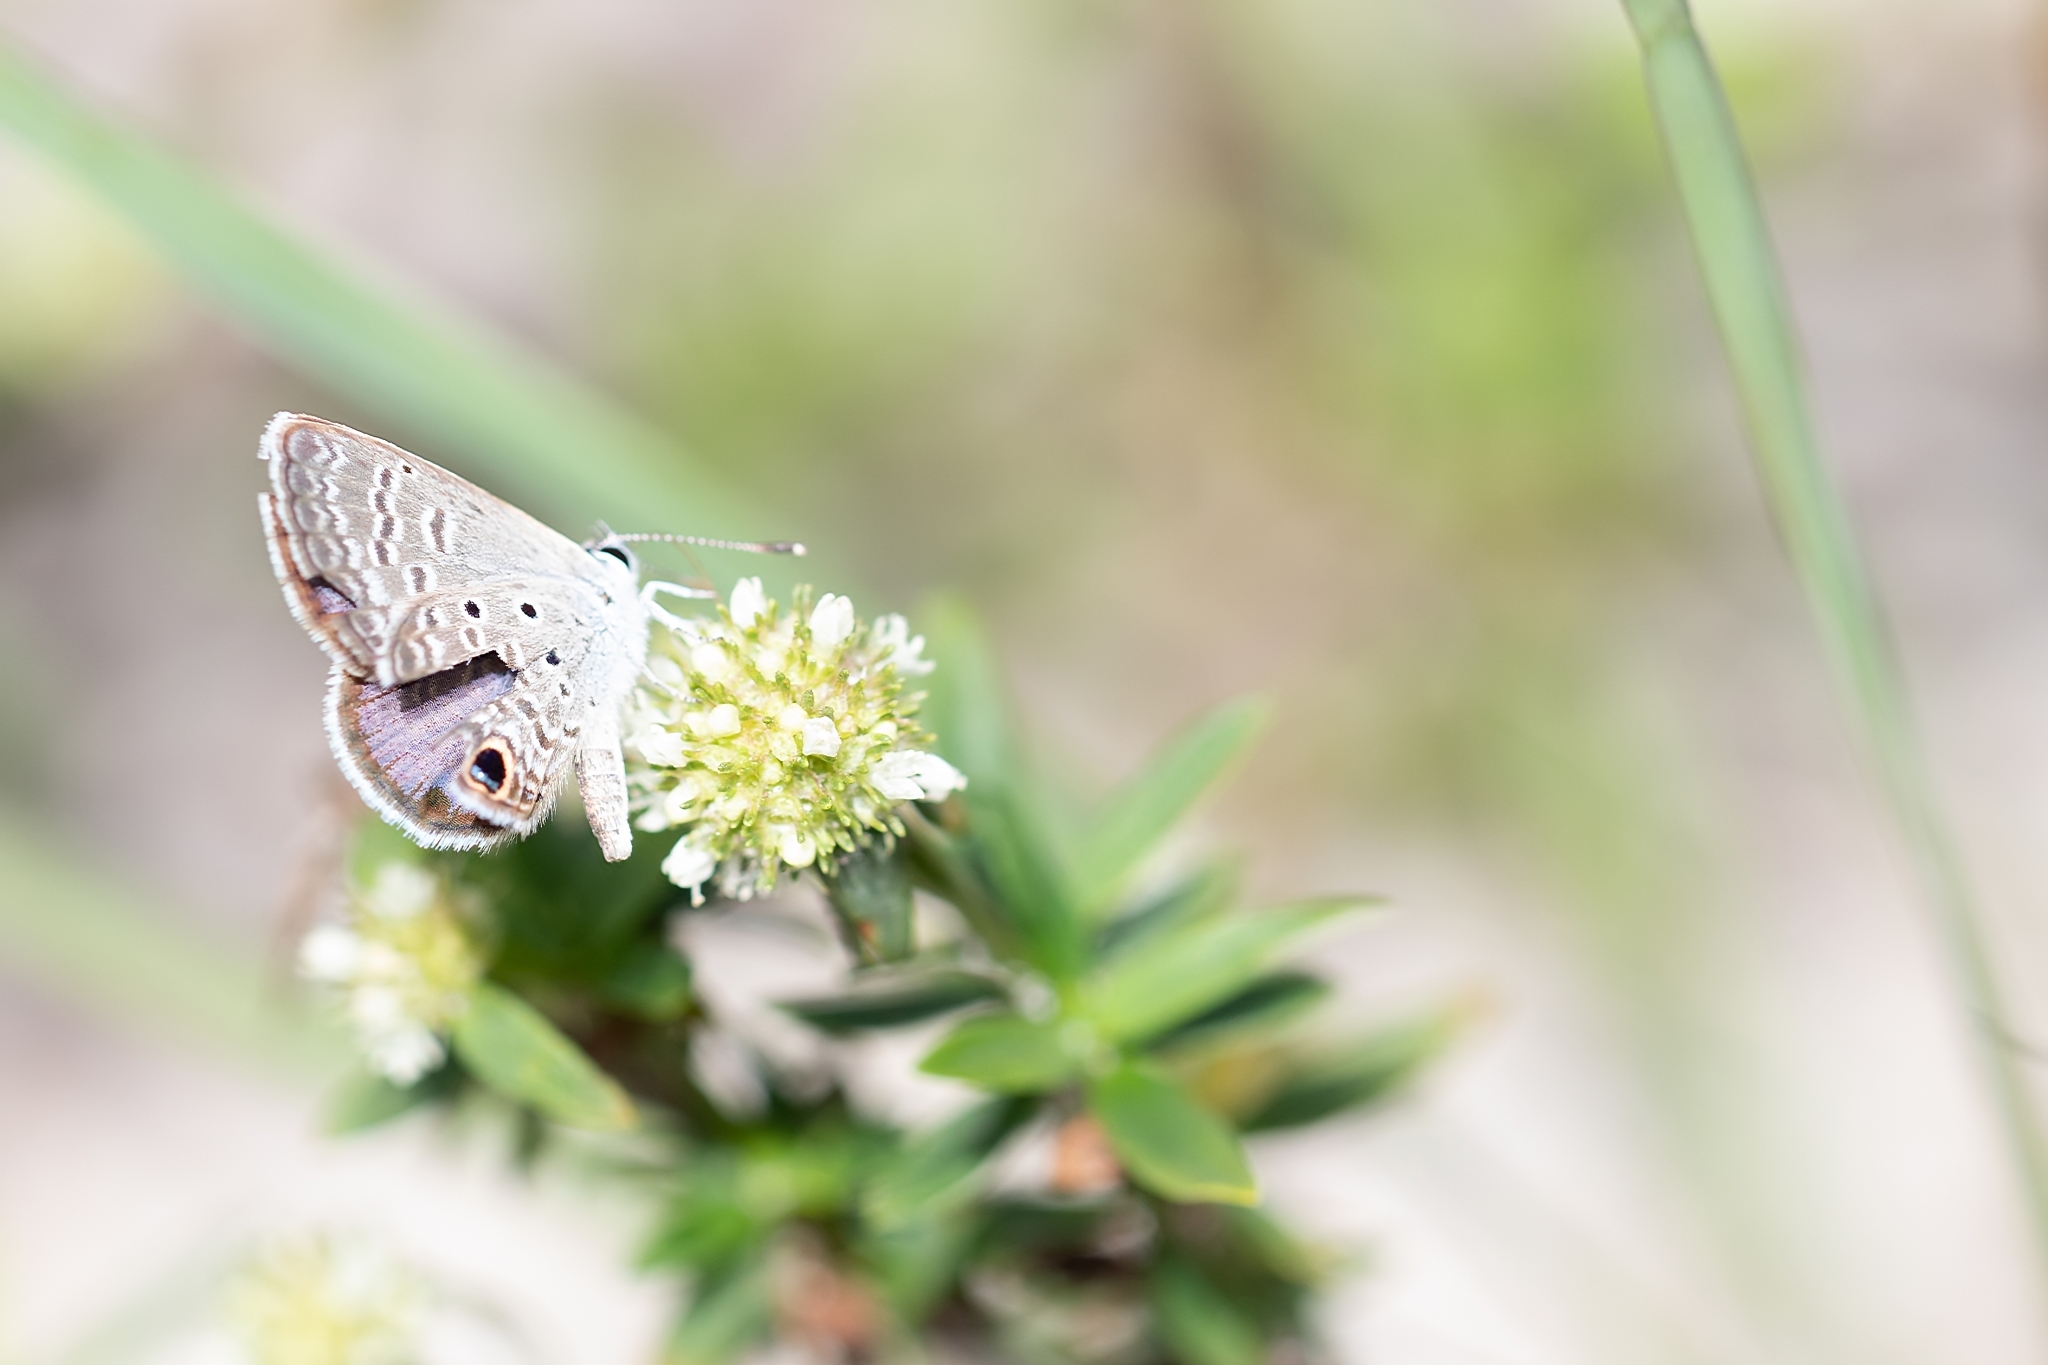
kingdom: Animalia
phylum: Arthropoda
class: Insecta
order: Lepidoptera
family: Lycaenidae
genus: Hemiargus
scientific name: Hemiargus ceraunus
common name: Ceraunus blue
